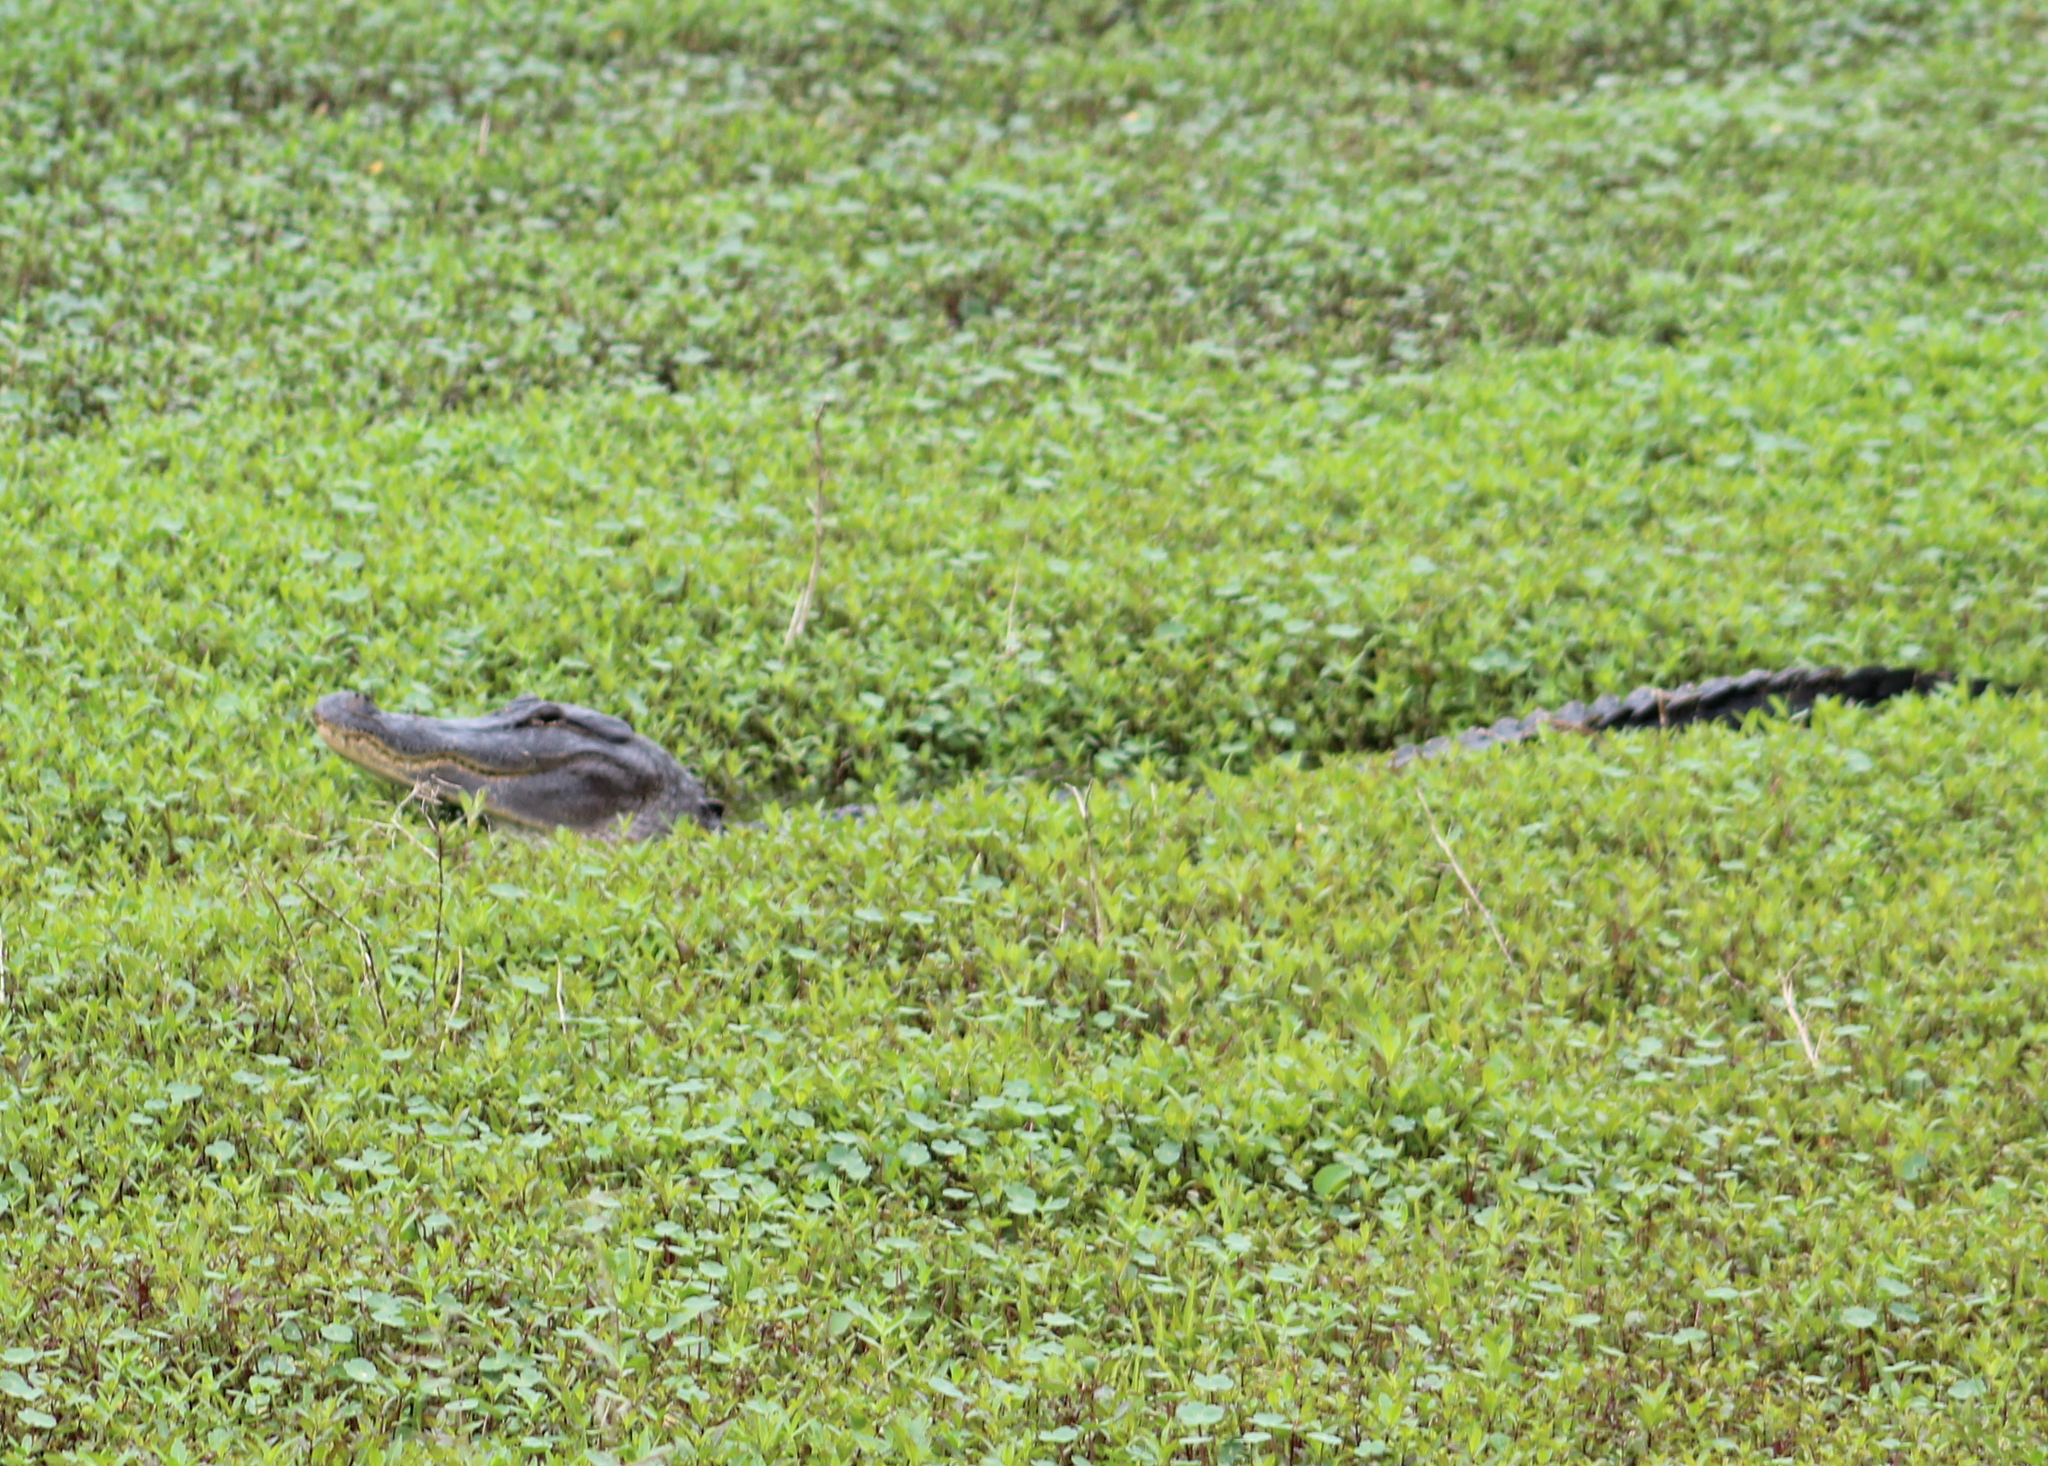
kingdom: Animalia
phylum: Chordata
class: Crocodylia
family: Alligatoridae
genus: Alligator
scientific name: Alligator mississippiensis
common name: American alligator
